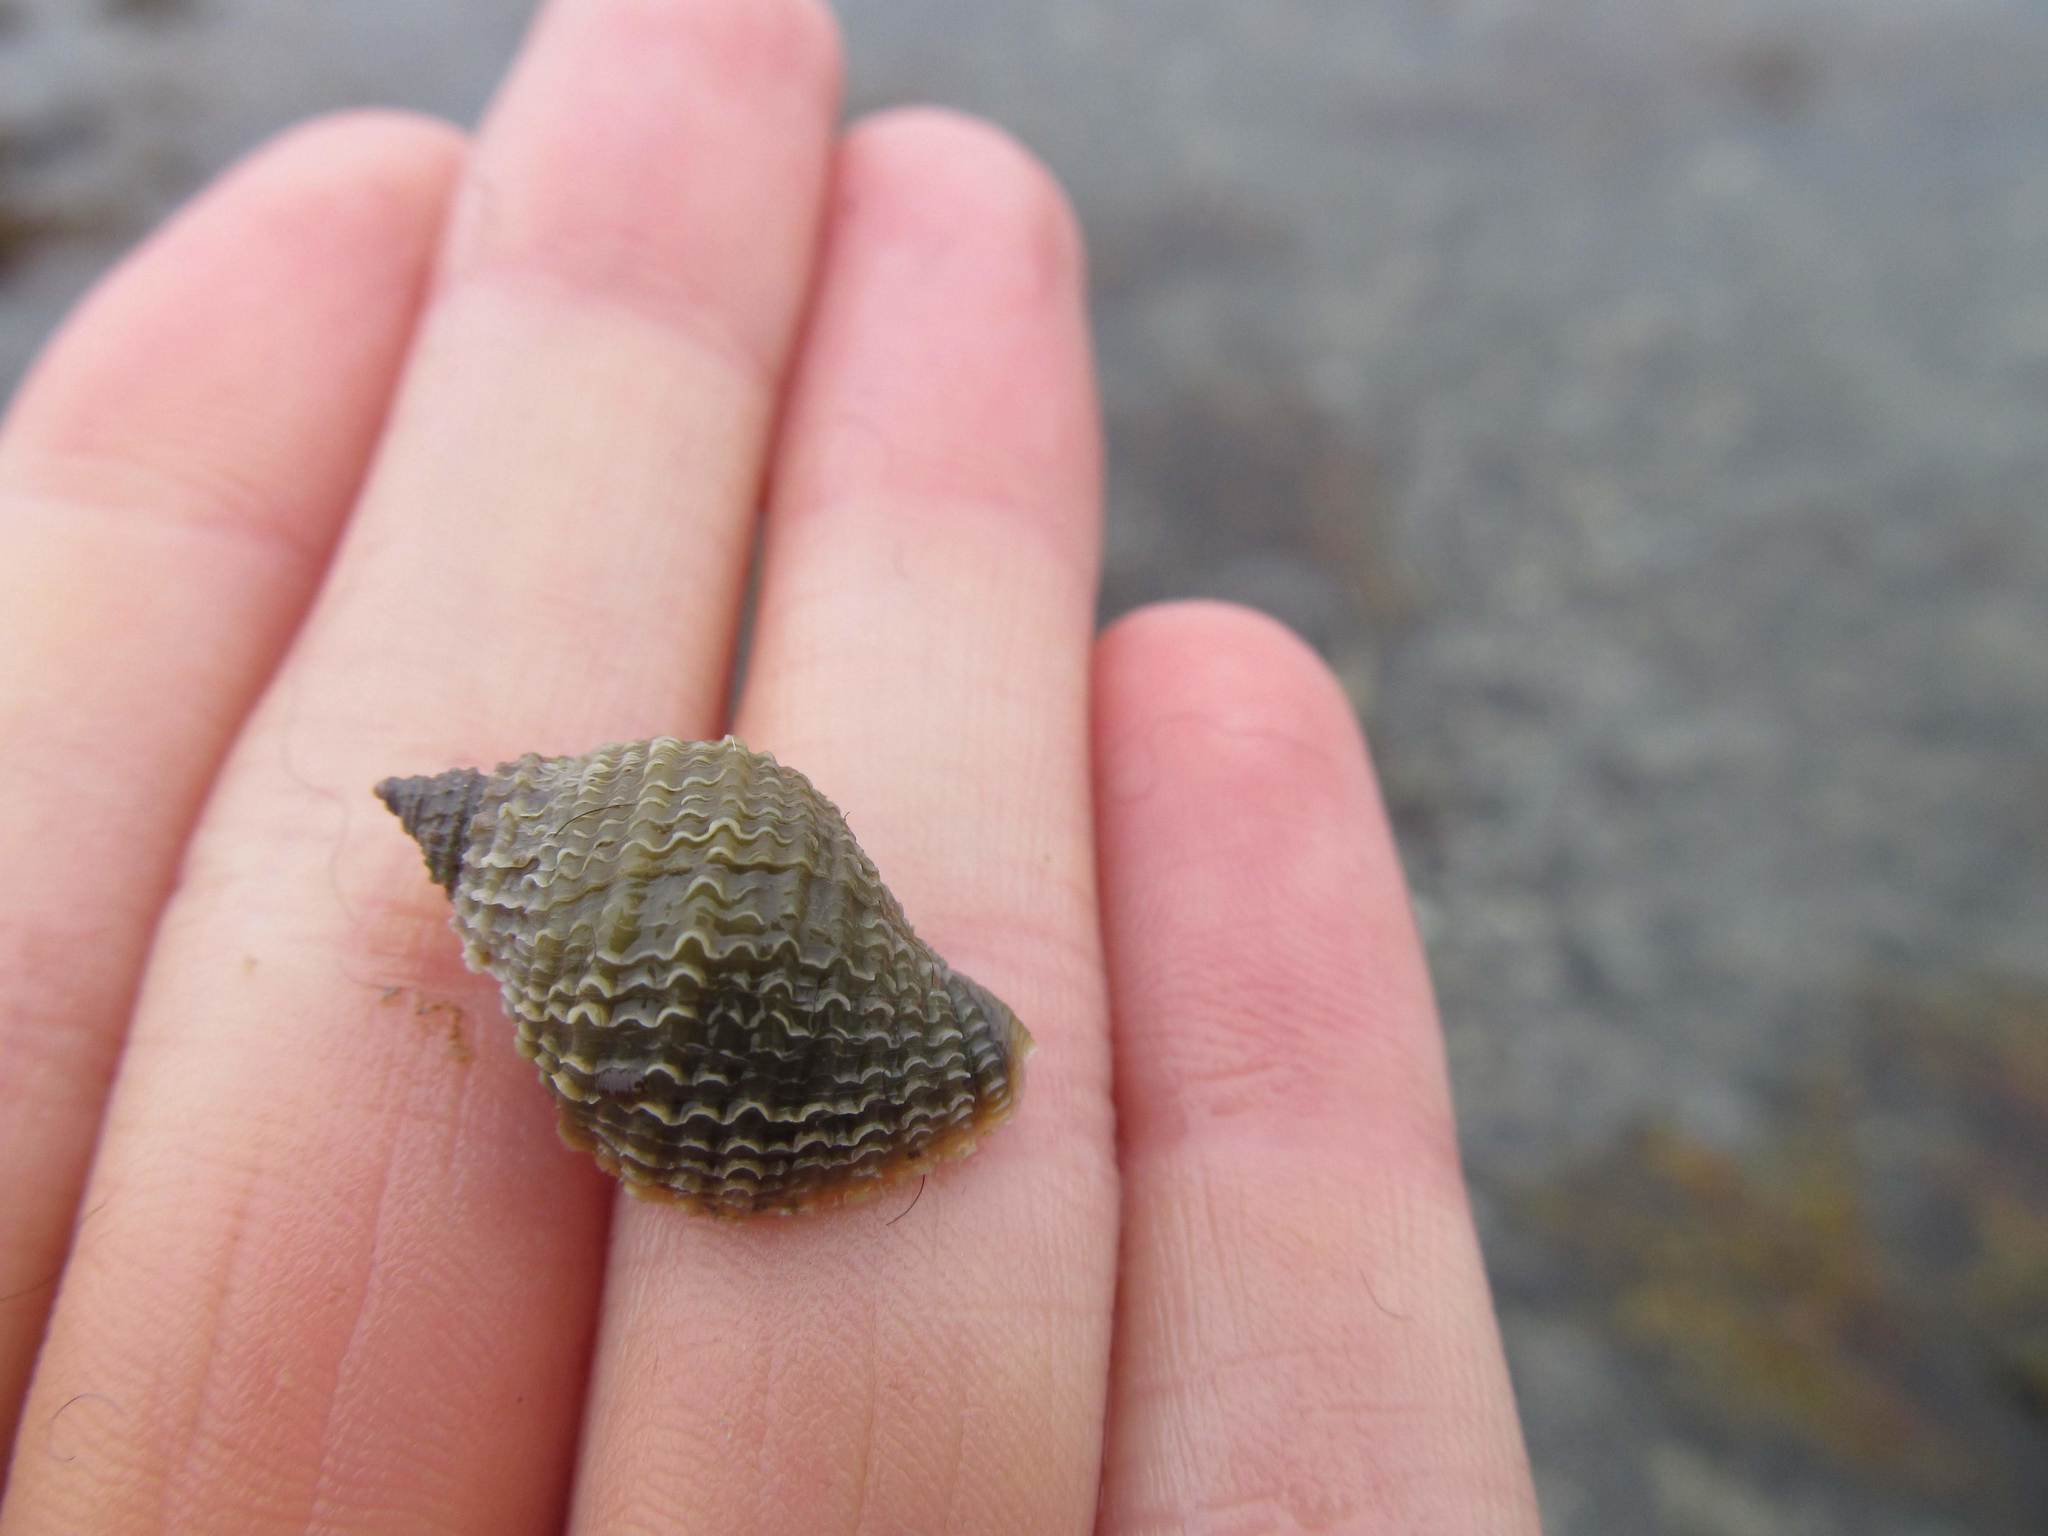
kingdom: Animalia
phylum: Mollusca
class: Gastropoda
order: Neogastropoda
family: Muricidae
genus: Nucella
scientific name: Nucella lapillus
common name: Dog whelk
